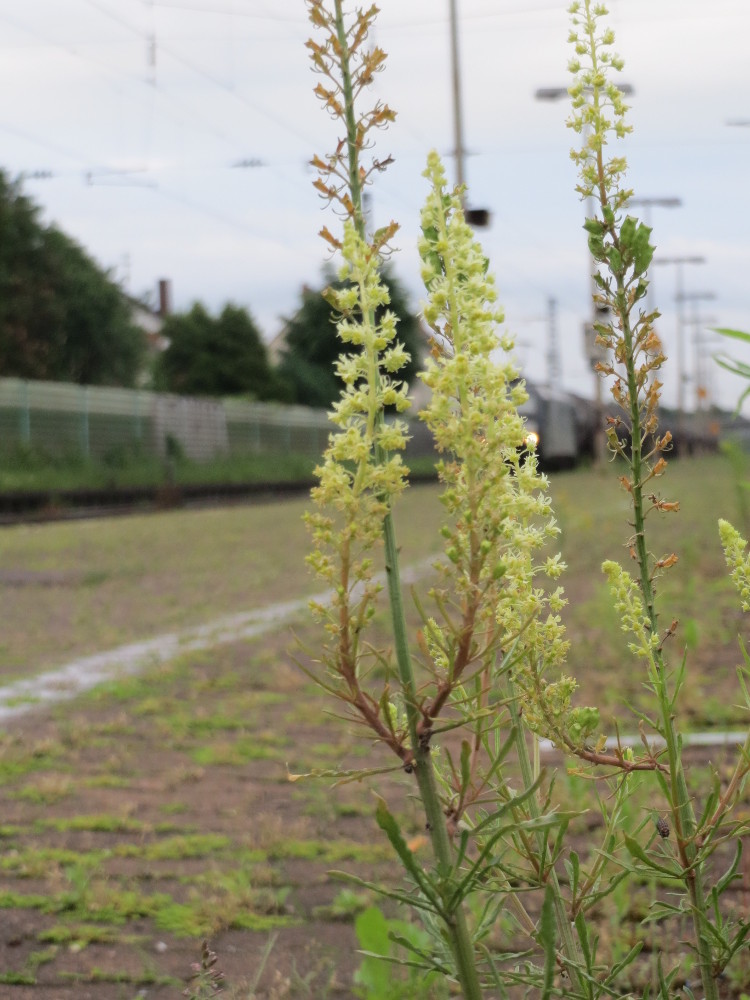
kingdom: Plantae
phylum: Tracheophyta
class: Magnoliopsida
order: Brassicales
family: Resedaceae
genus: Reseda
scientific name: Reseda lutea
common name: Wild mignonette
